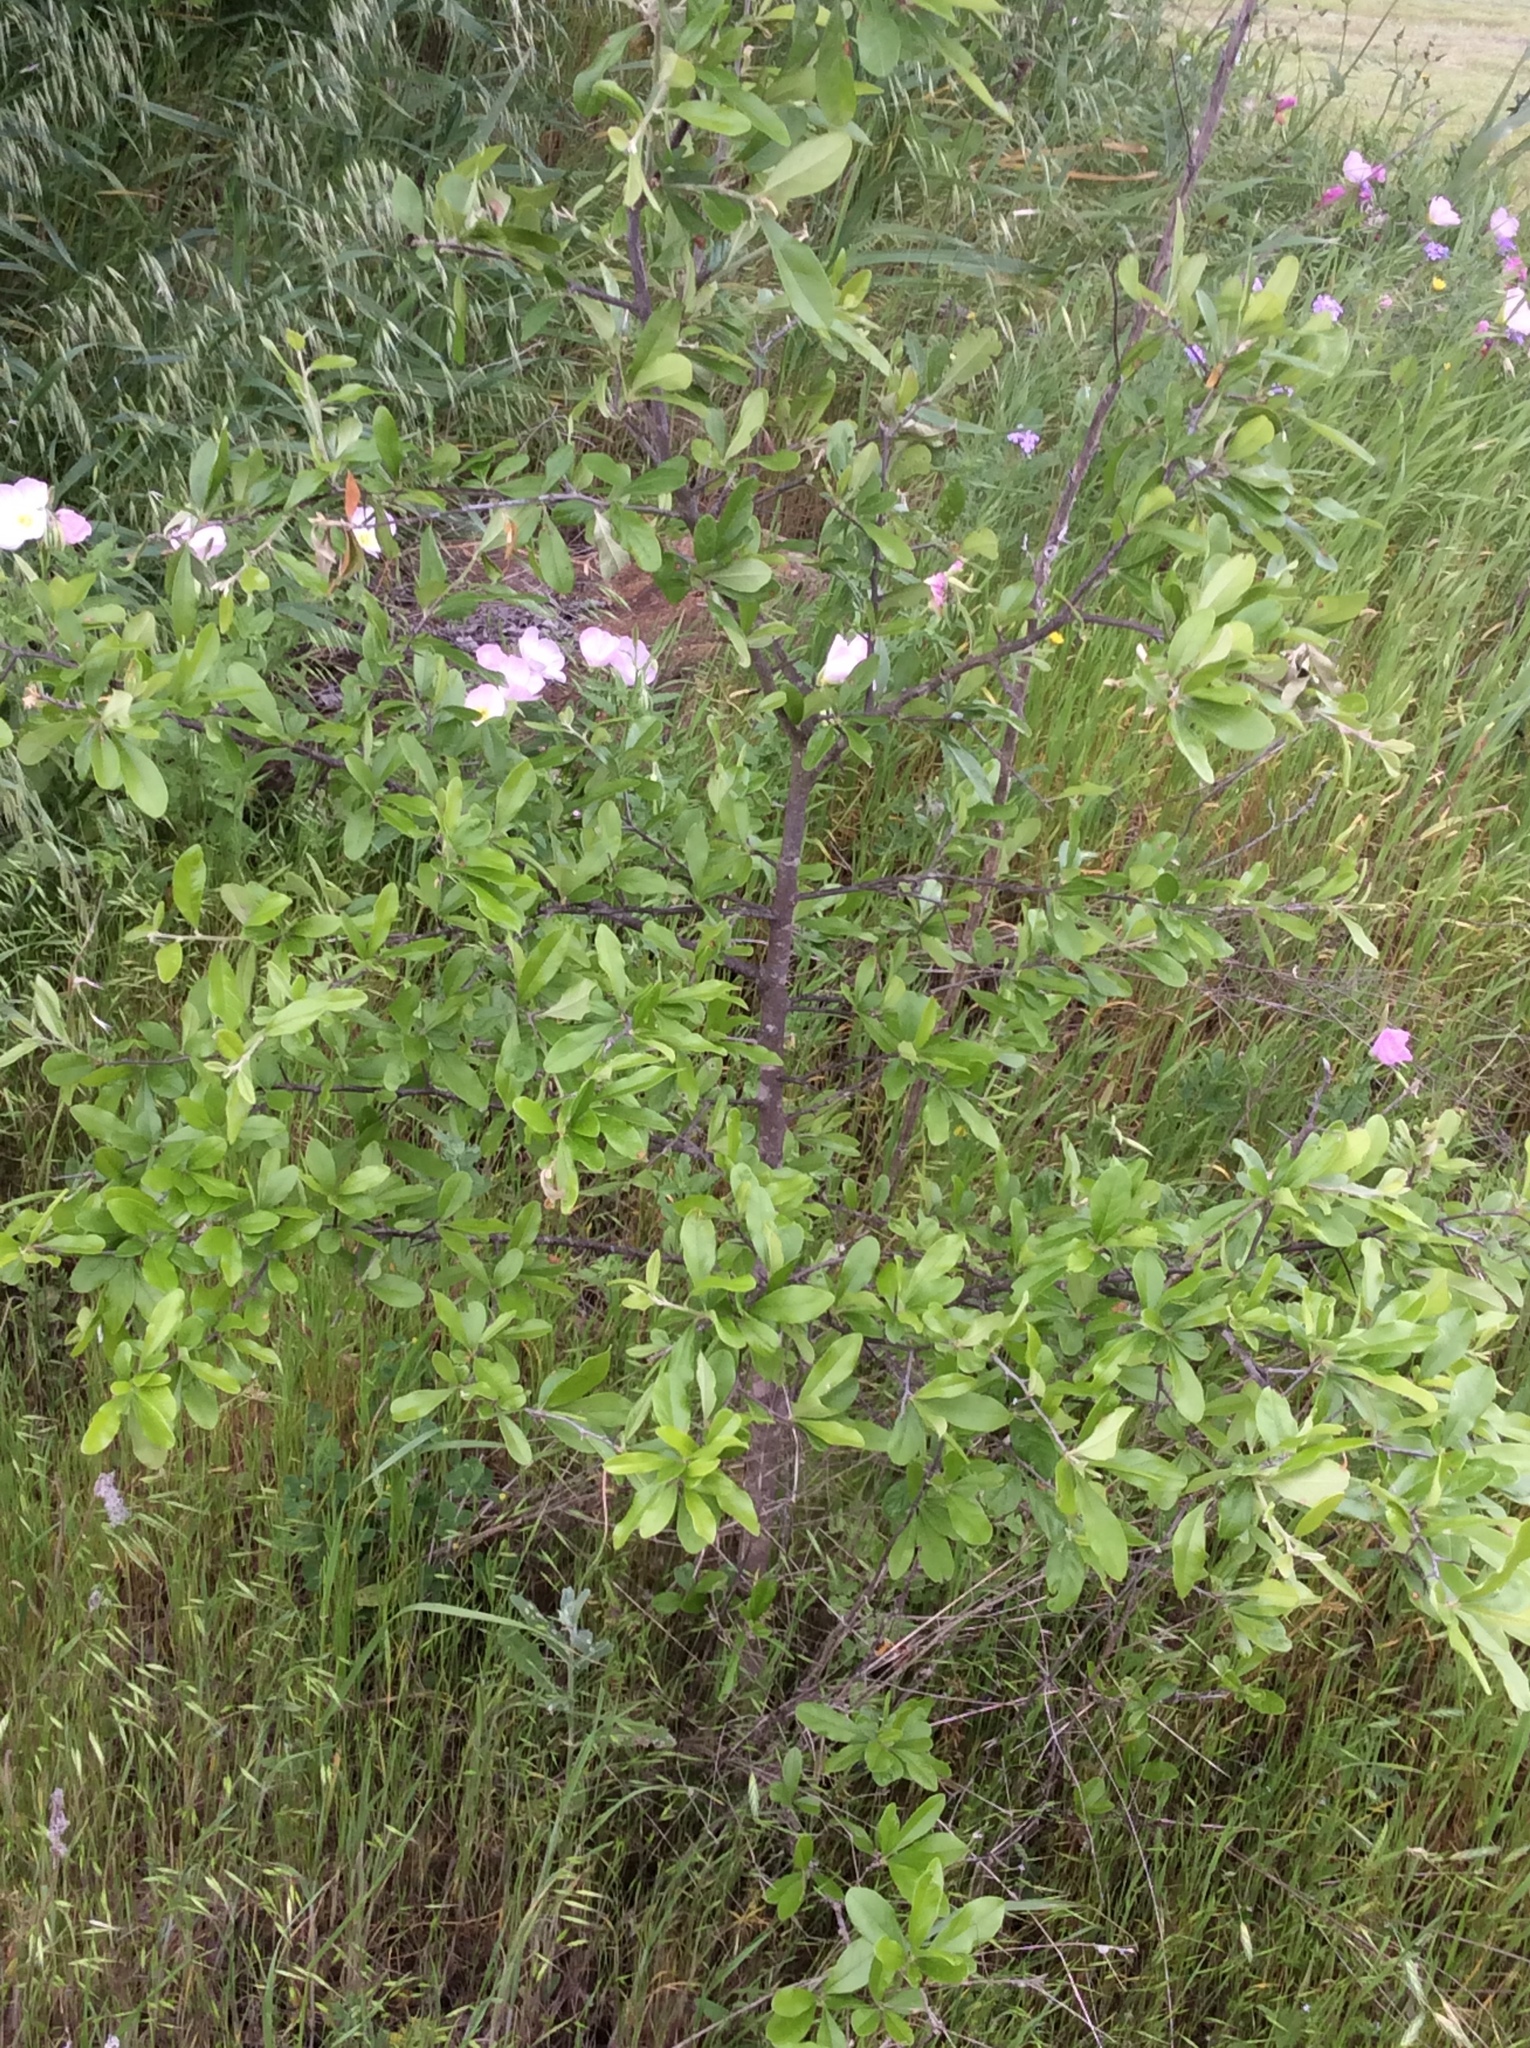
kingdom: Plantae
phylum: Tracheophyta
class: Magnoliopsida
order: Myrtales
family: Onagraceae
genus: Oenothera
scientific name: Oenothera speciosa
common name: White evening-primrose
